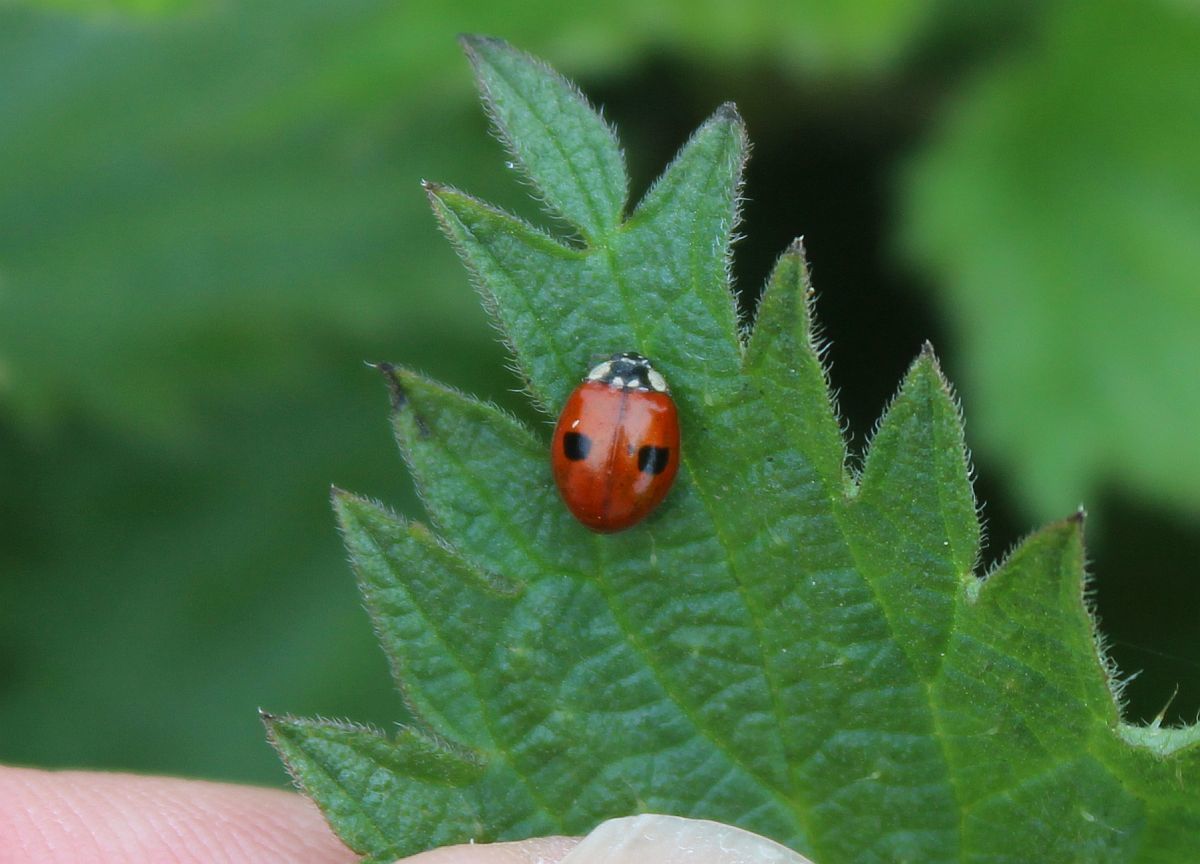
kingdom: Animalia
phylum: Arthropoda
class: Insecta
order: Coleoptera
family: Coccinellidae
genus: Adalia
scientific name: Adalia bipunctata
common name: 2-spot ladybird
